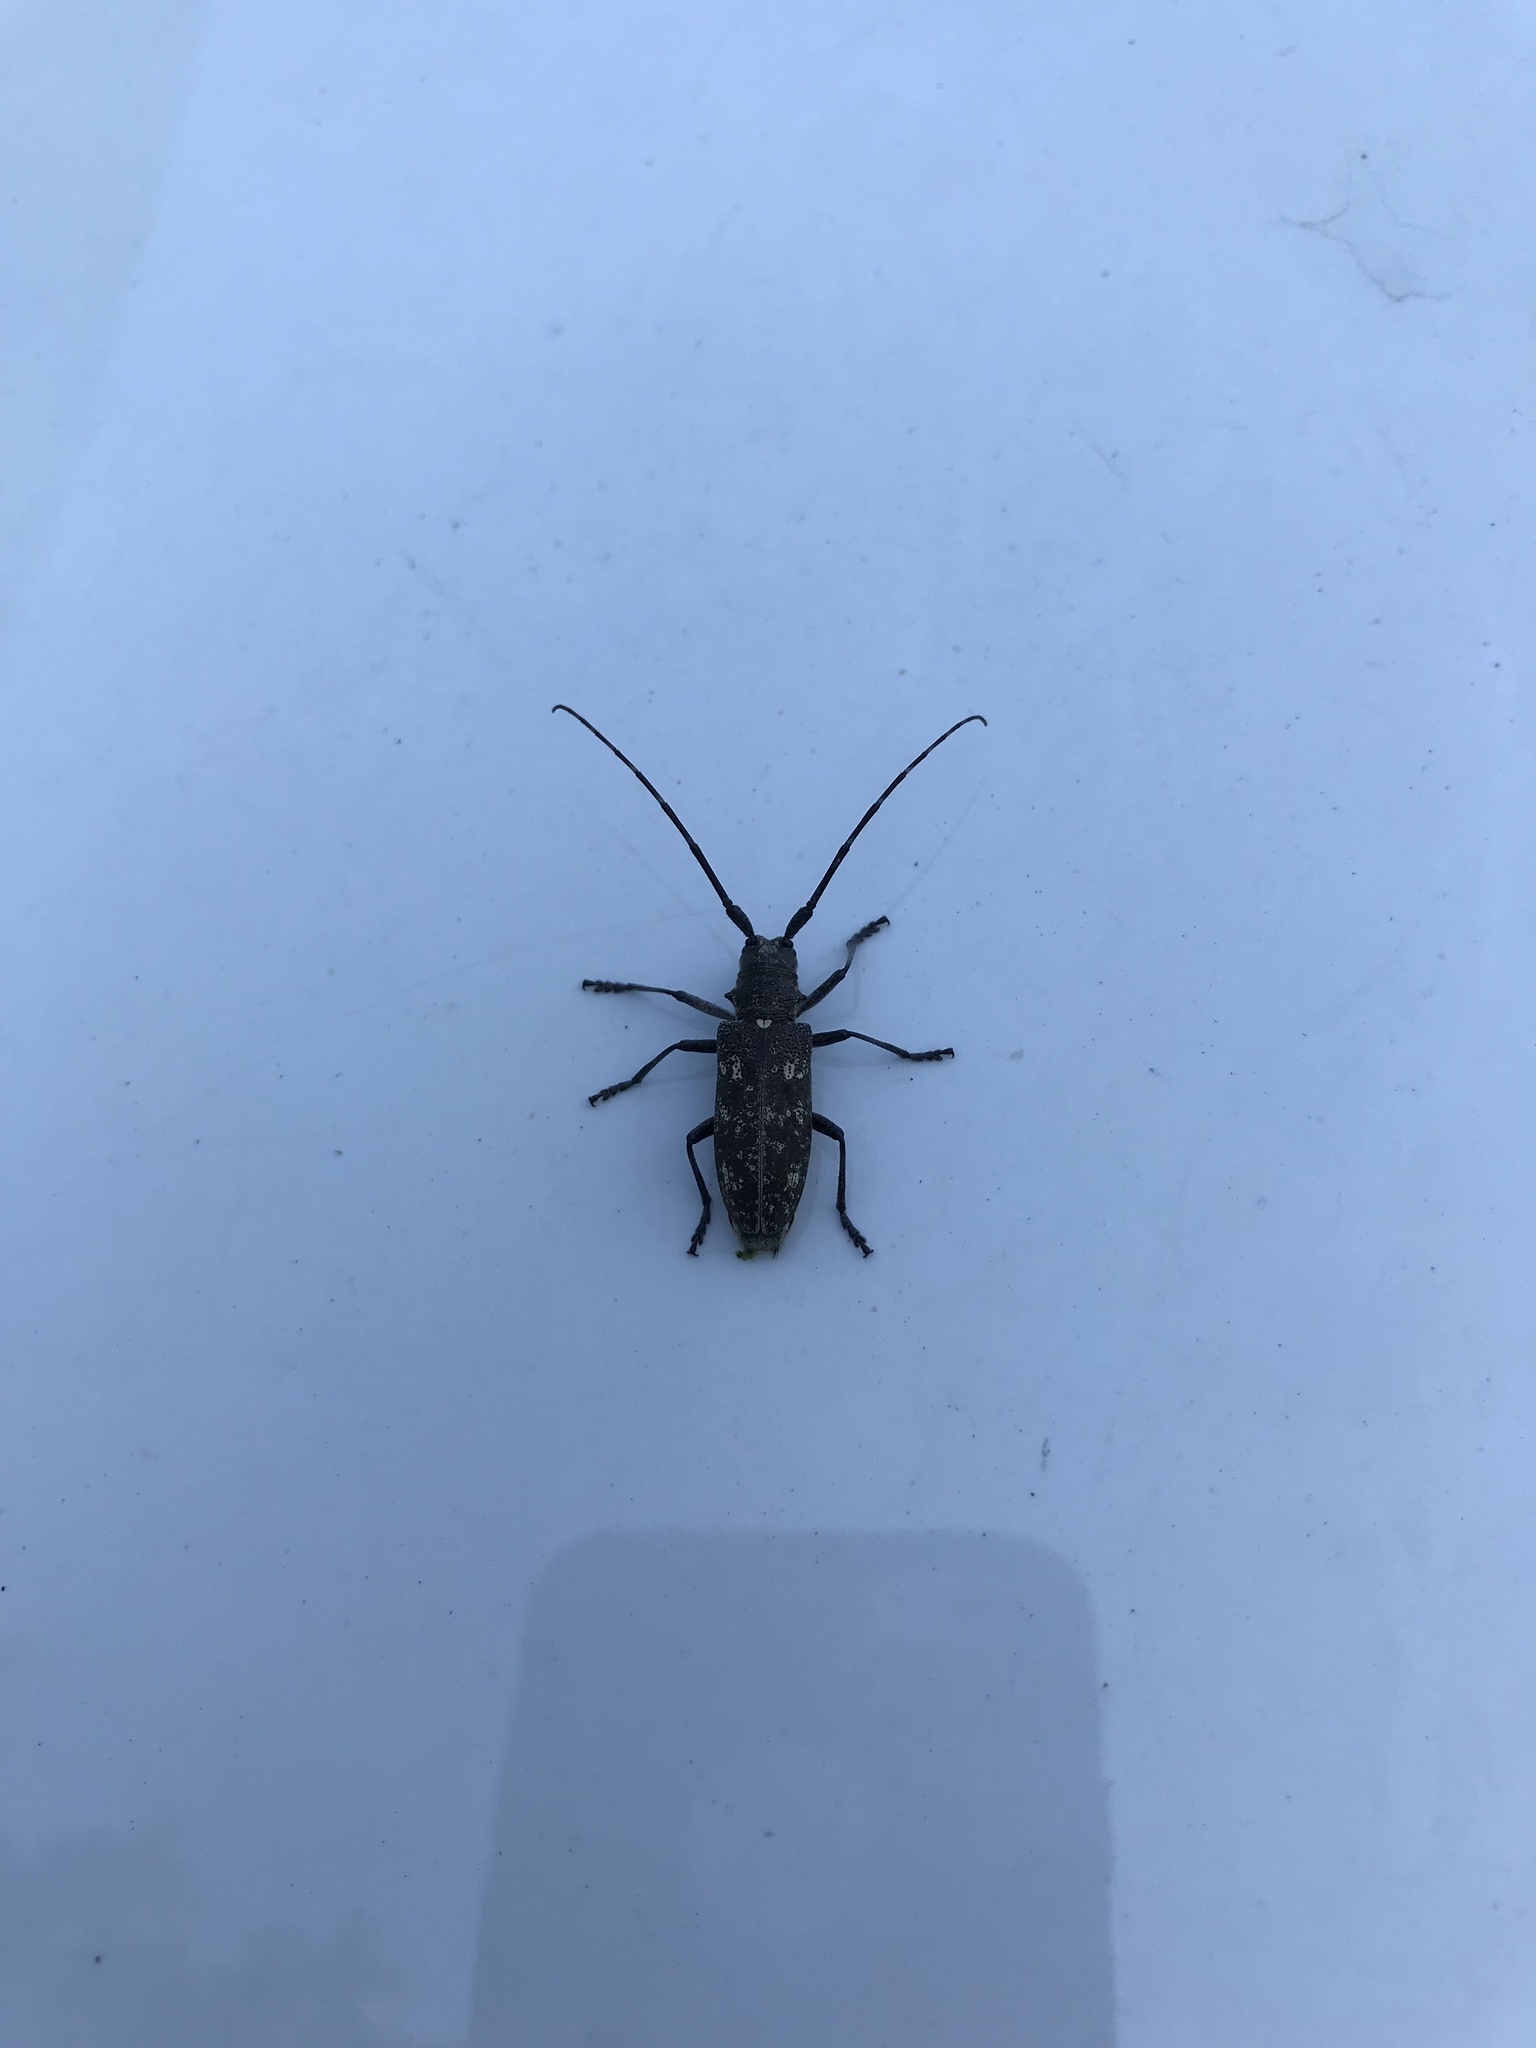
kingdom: Animalia
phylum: Arthropoda
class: Insecta
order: Coleoptera
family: Cerambycidae
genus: Monochamus
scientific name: Monochamus scutellatus
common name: White-spotted sawyer beetle
